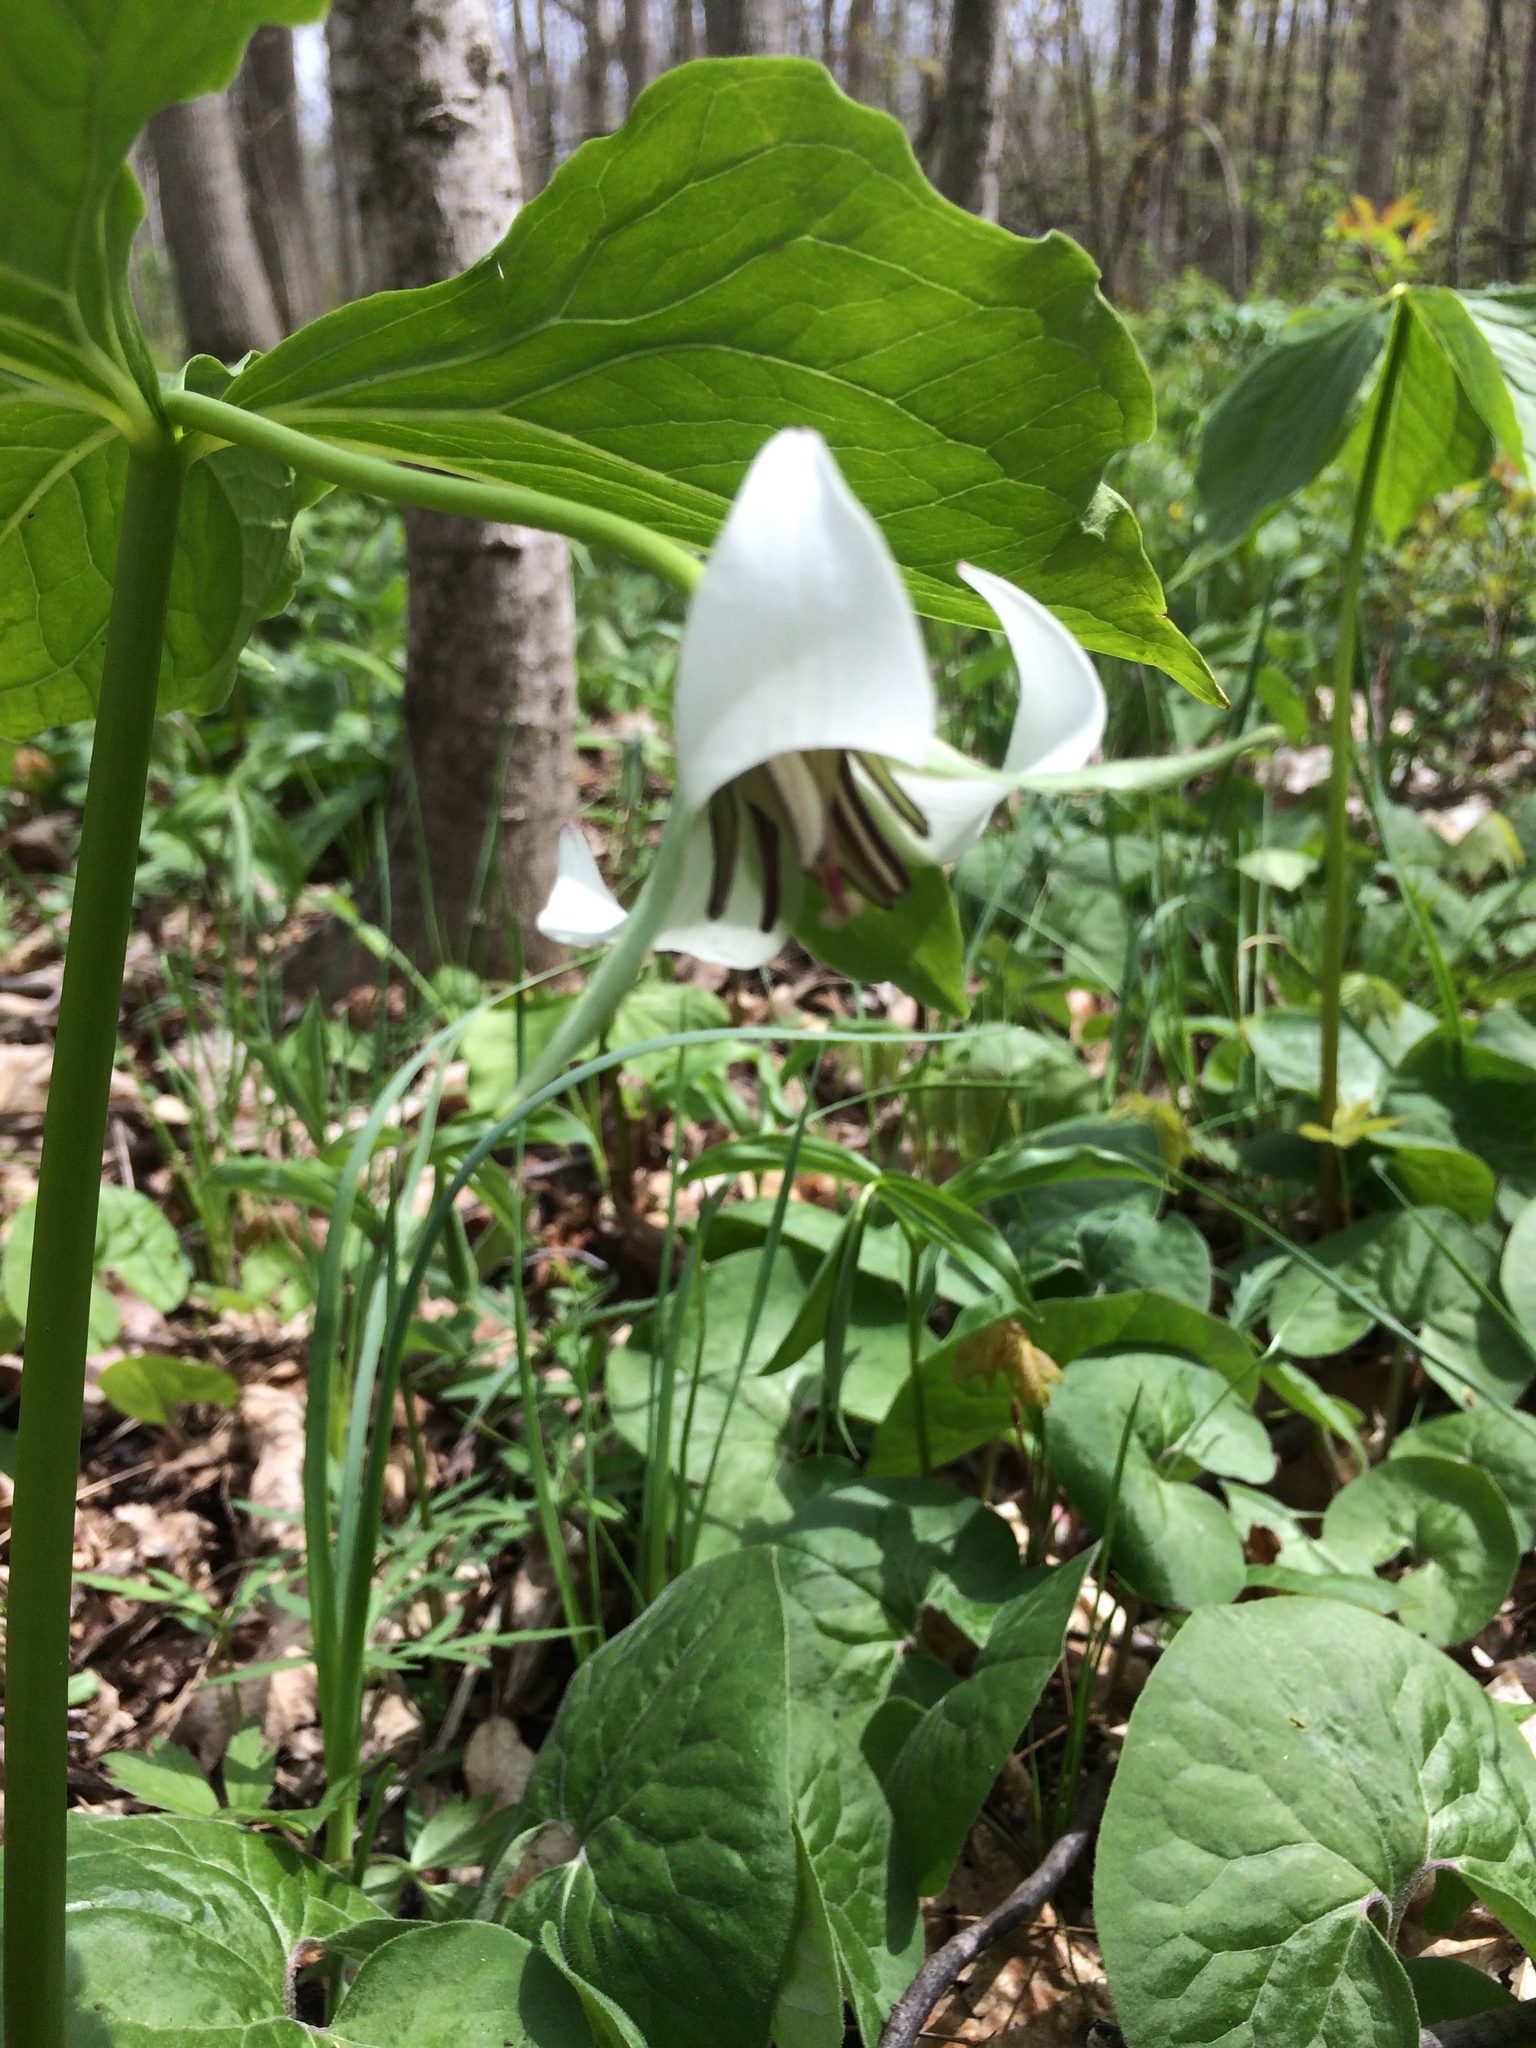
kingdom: Plantae
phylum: Tracheophyta
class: Liliopsida
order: Liliales
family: Melanthiaceae
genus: Trillium
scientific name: Trillium flexipes
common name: Drooping trillium
